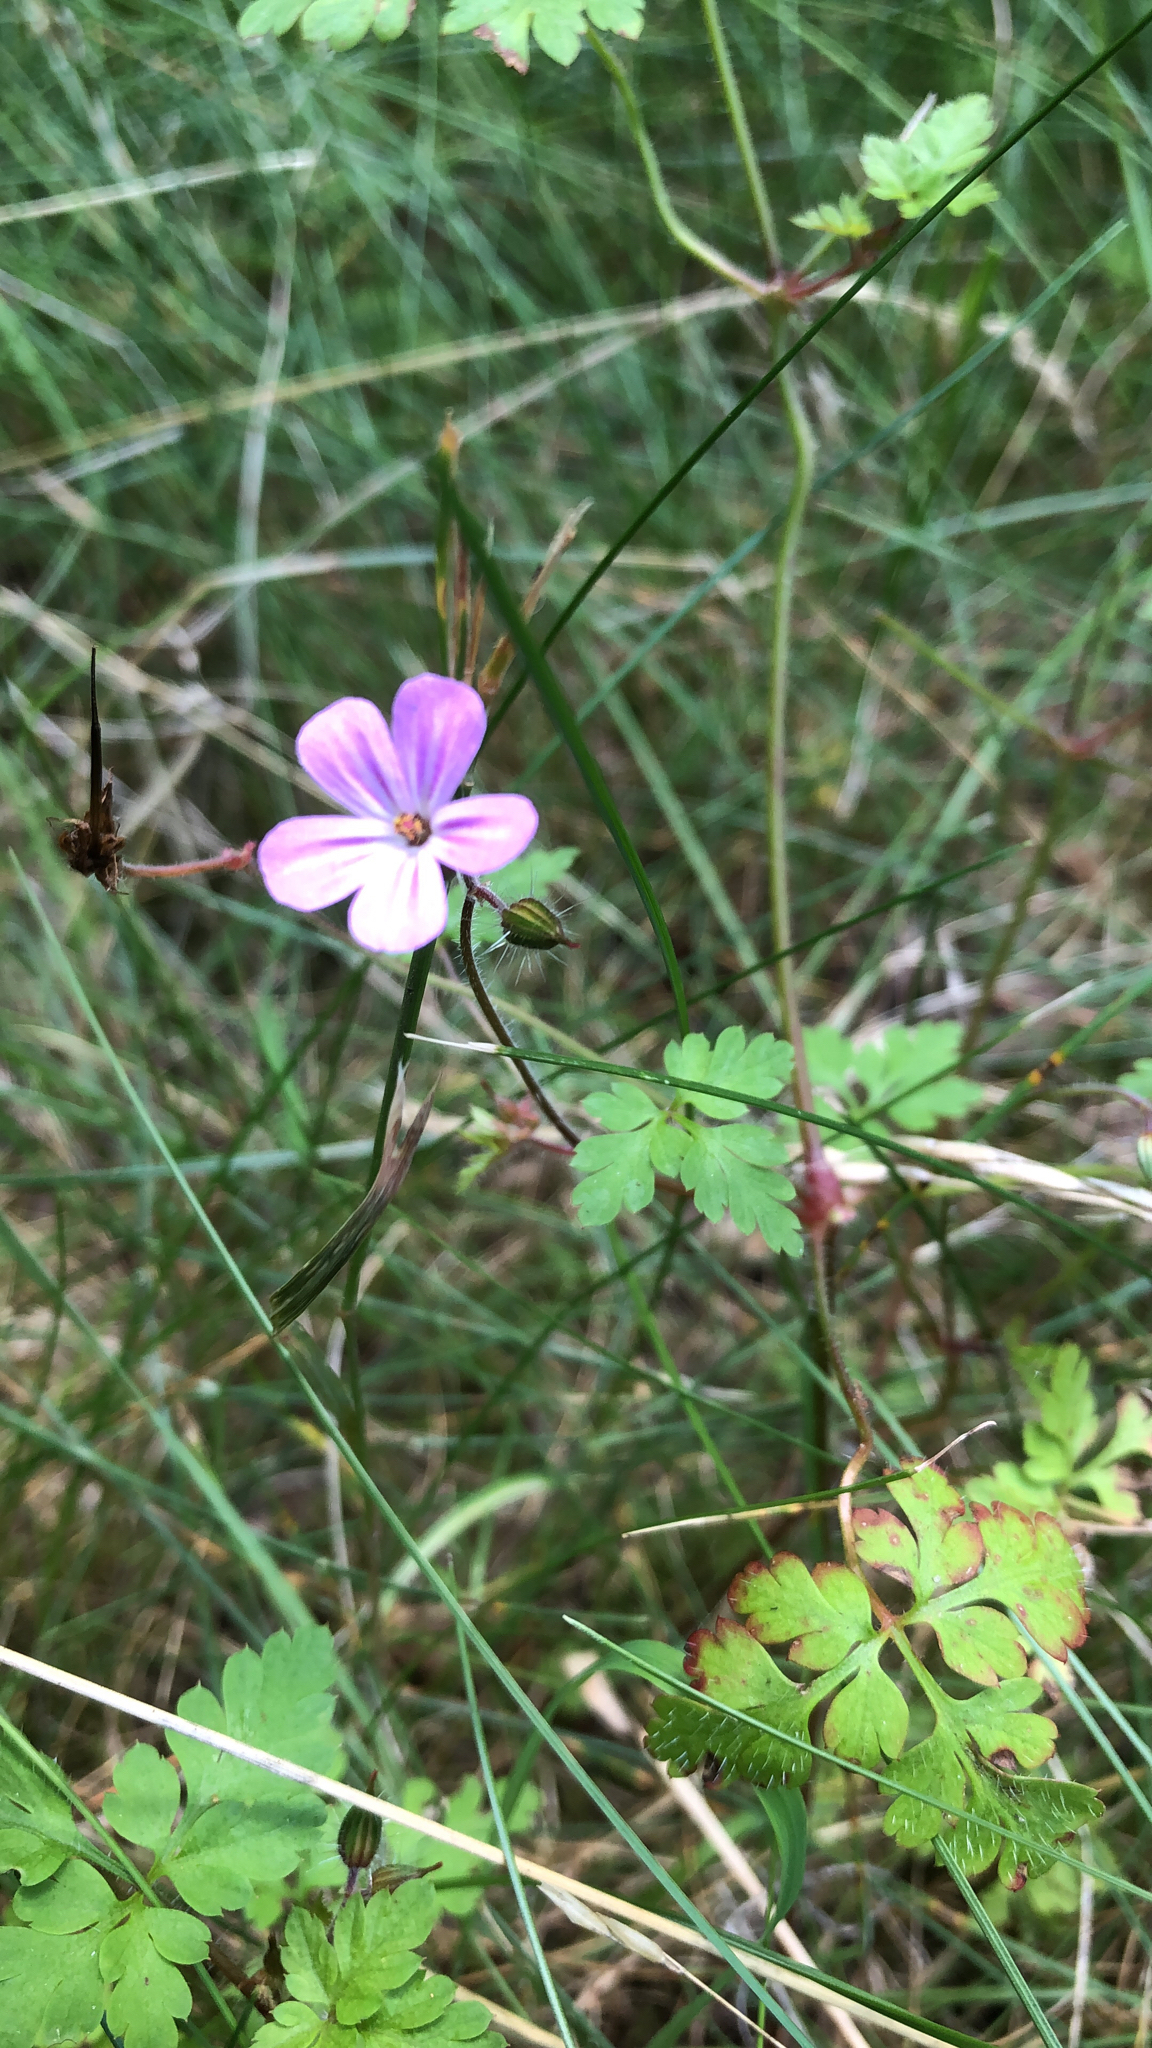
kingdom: Plantae
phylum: Tracheophyta
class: Magnoliopsida
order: Geraniales
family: Geraniaceae
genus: Geranium
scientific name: Geranium robertianum
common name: Herb-robert
